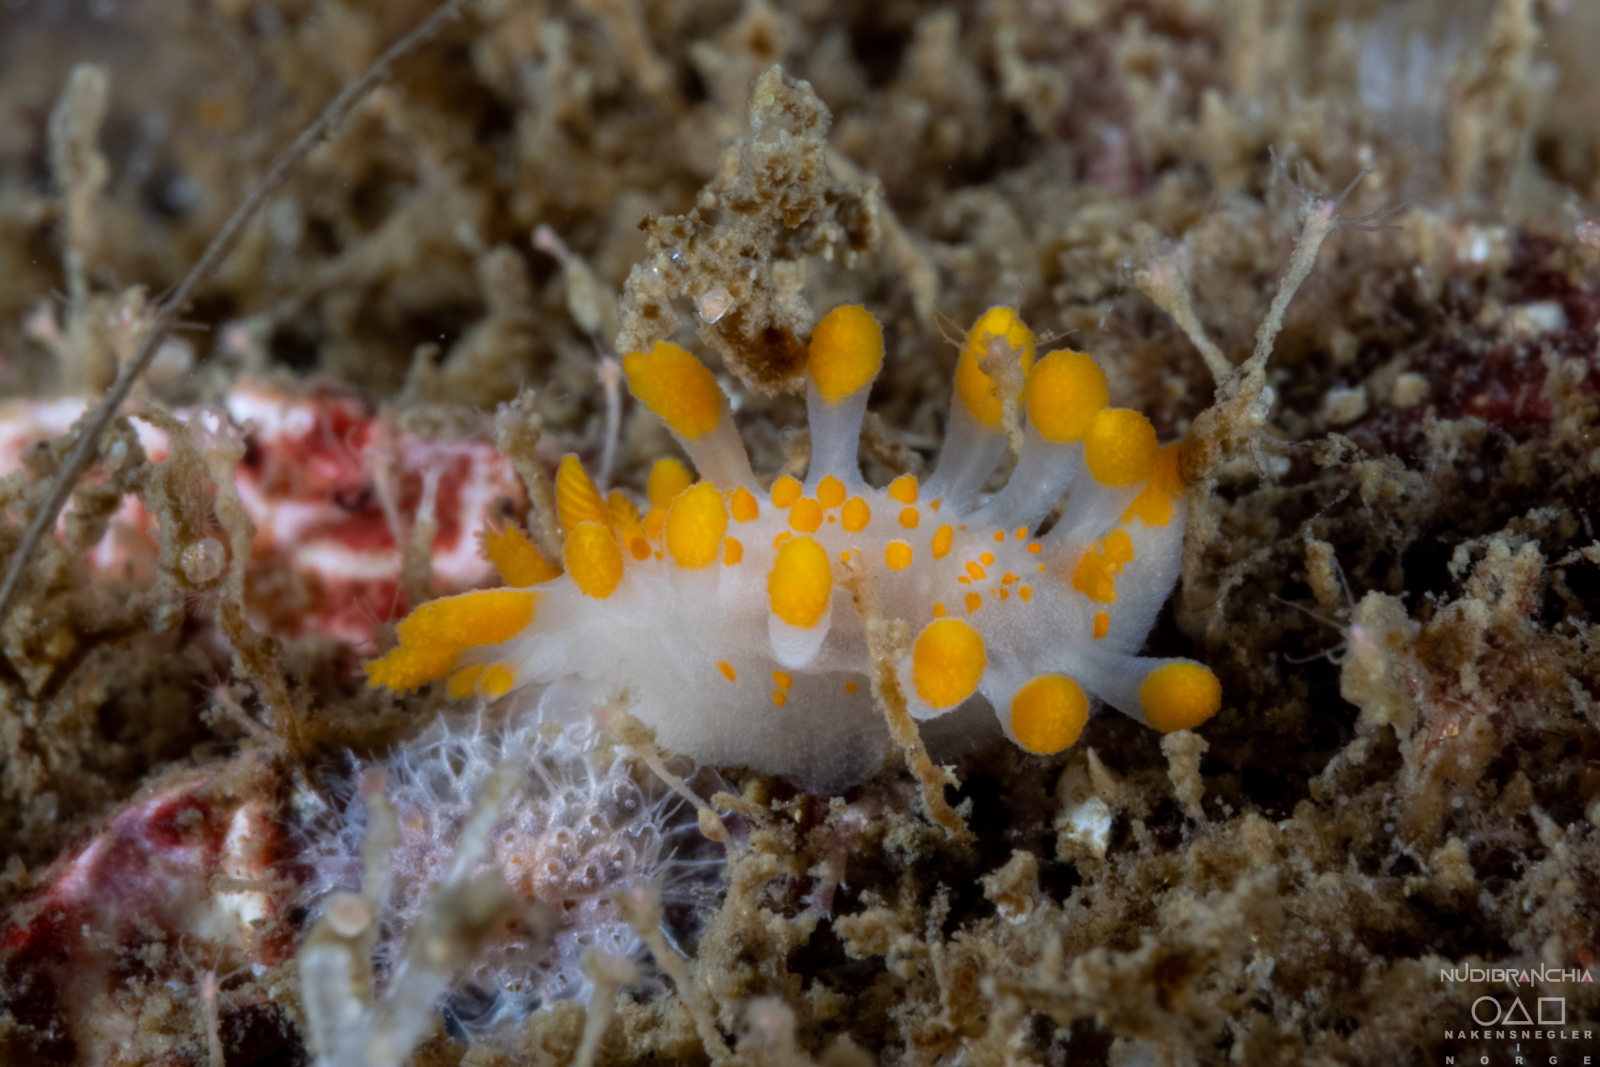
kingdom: Animalia
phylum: Mollusca
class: Gastropoda
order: Nudibranchia
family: Polyceridae
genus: Limacia
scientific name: Limacia clavigera
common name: Orange-clubbed sea slug
